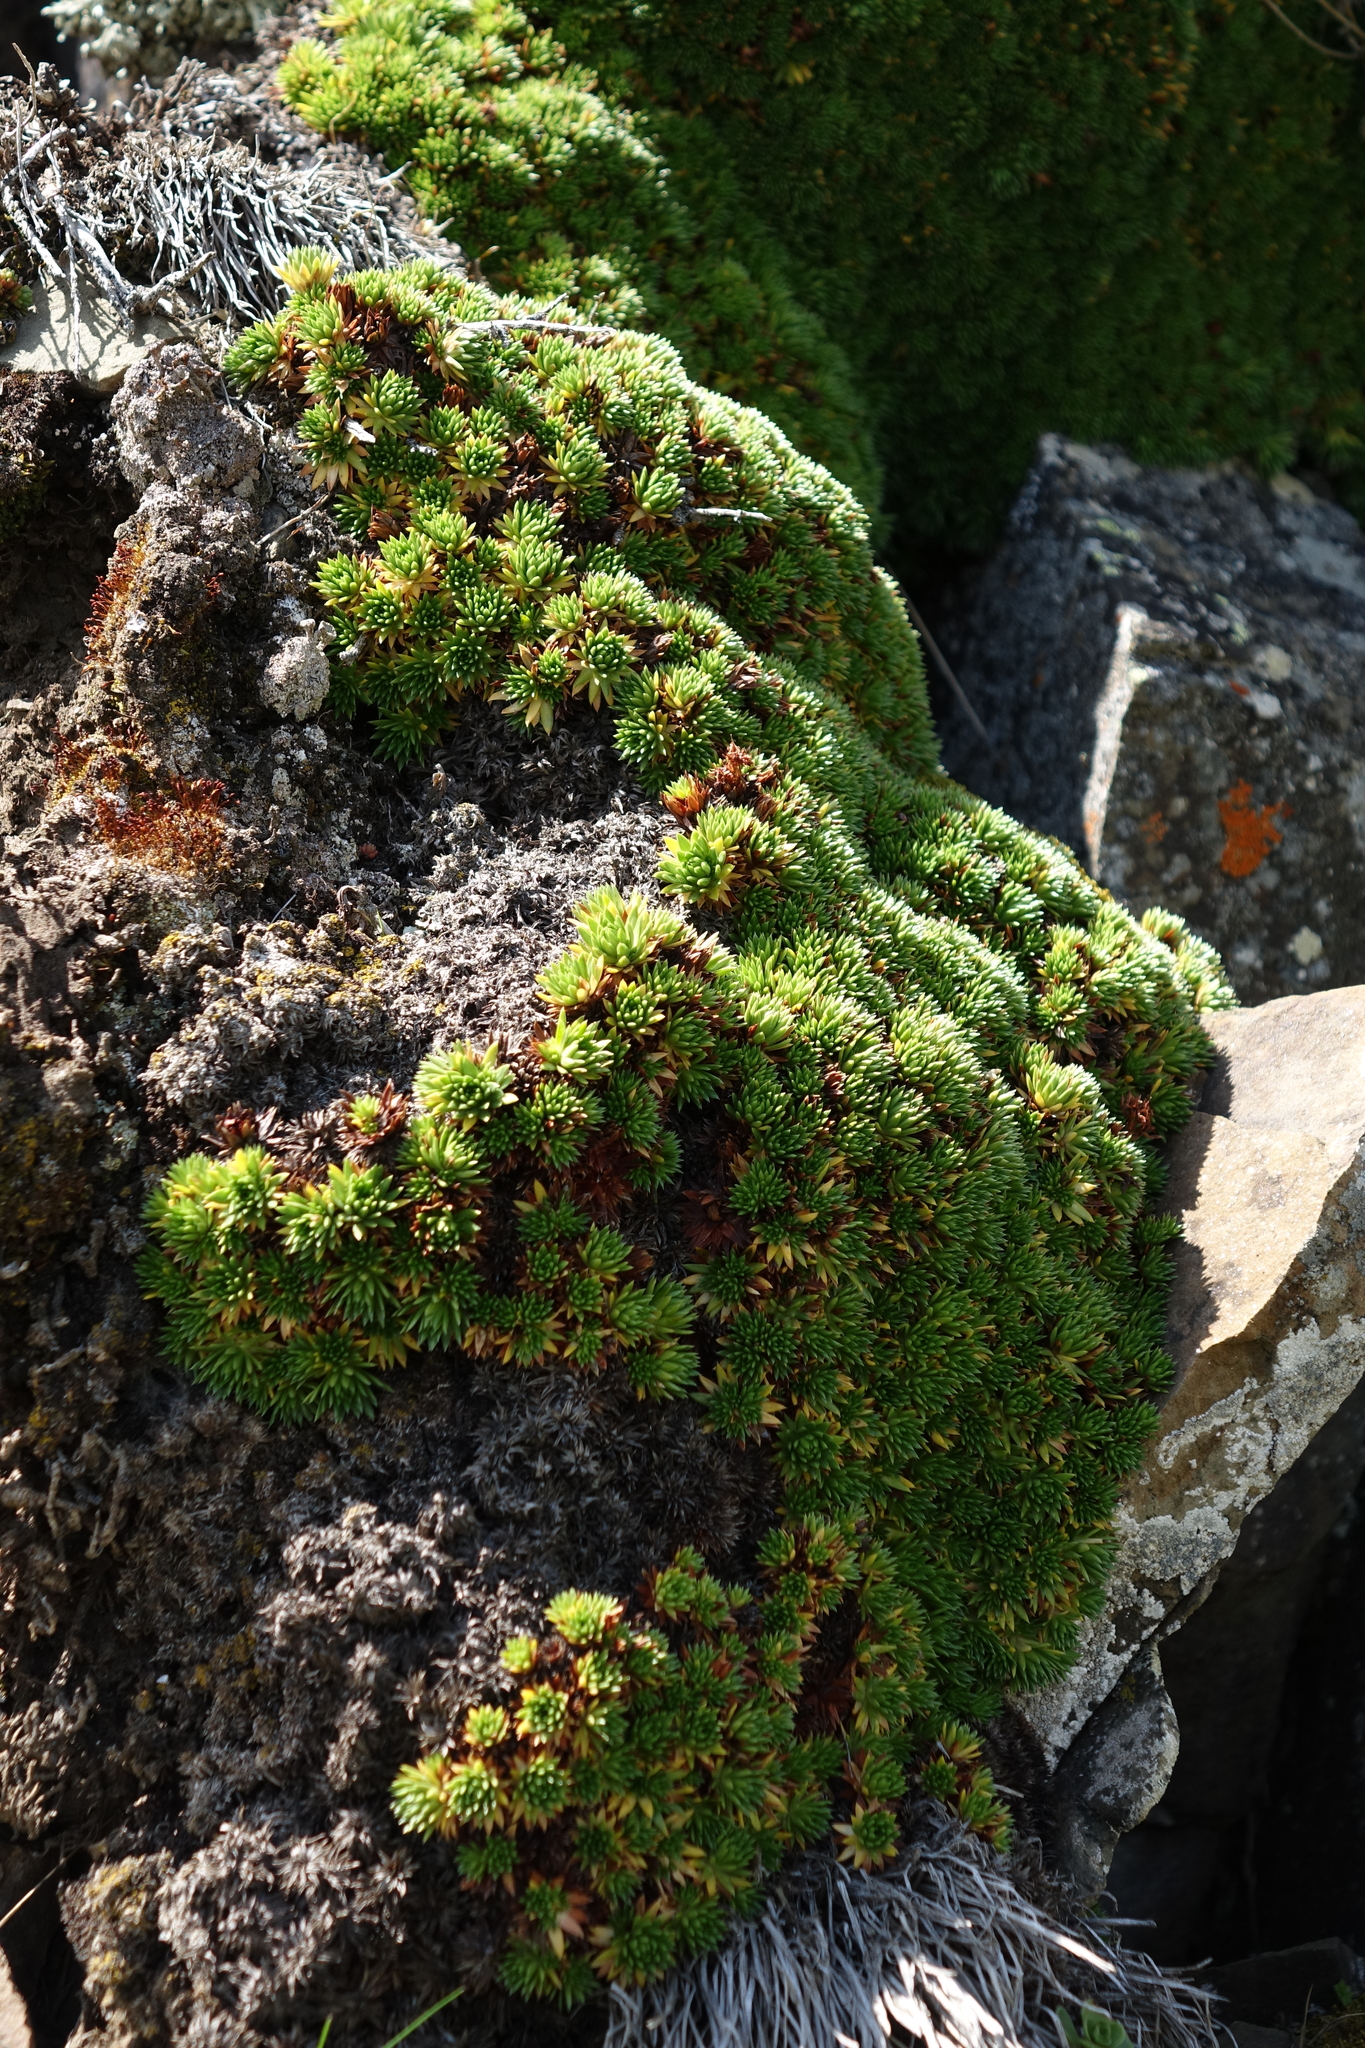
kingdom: Plantae
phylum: Tracheophyta
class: Magnoliopsida
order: Saxifragales
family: Saxifragaceae
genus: Saxifraga
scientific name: Saxifraga juniperifolia
